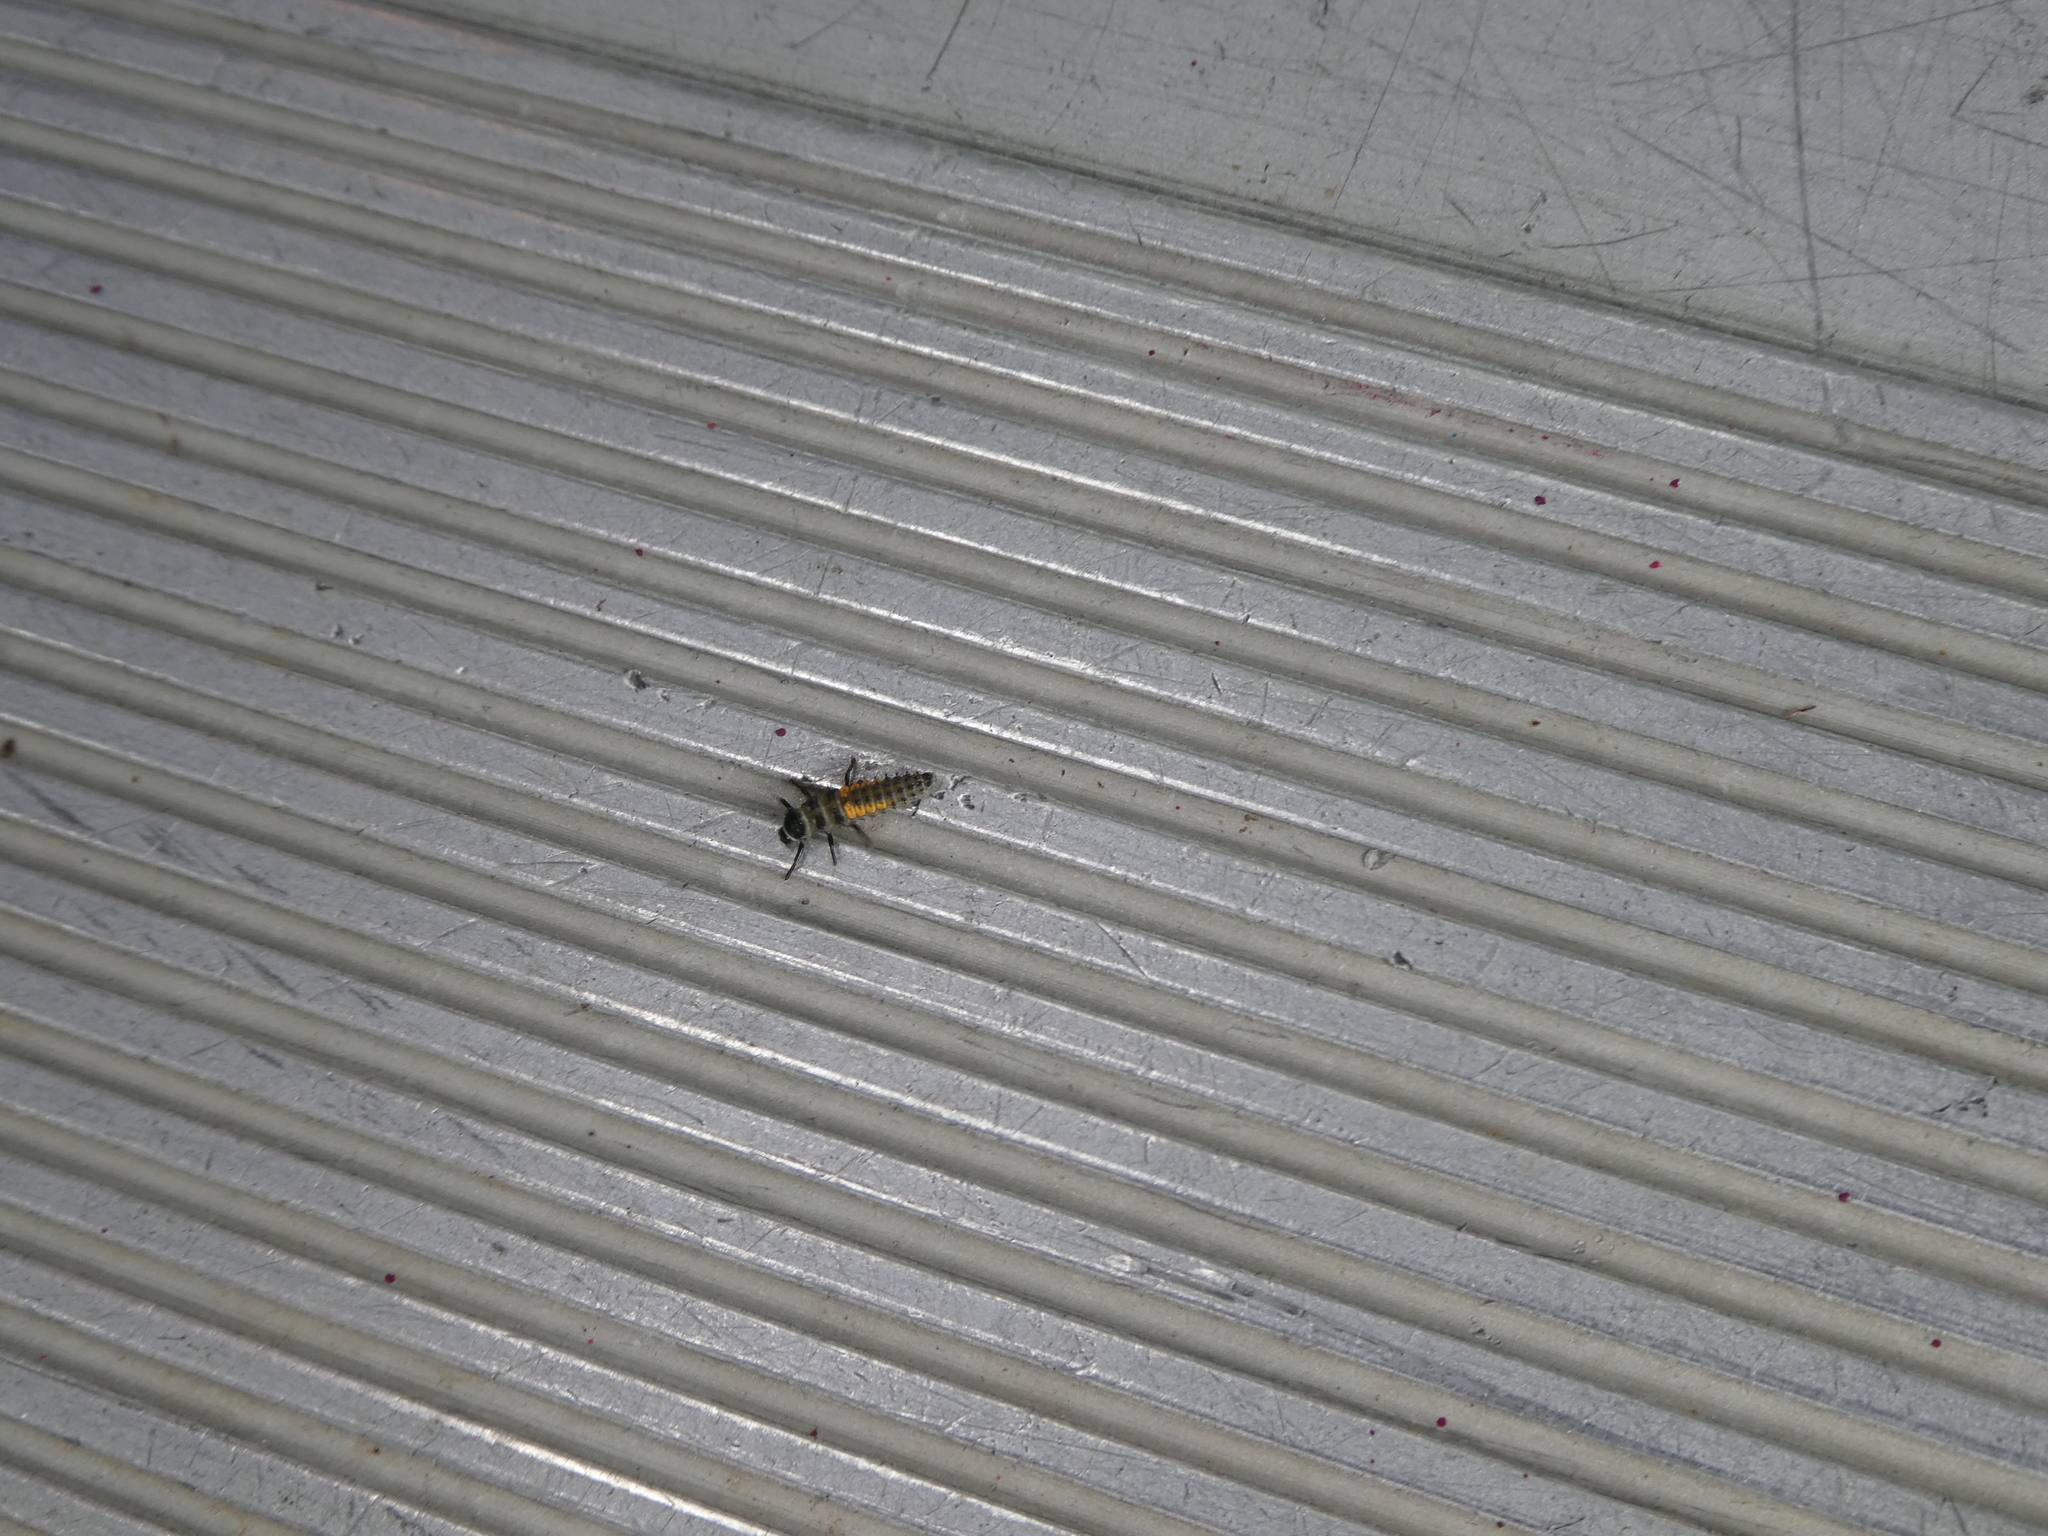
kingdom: Animalia
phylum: Arthropoda
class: Insecta
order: Coleoptera
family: Coccinellidae
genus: Harmonia
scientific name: Harmonia axyridis
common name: Harlequin ladybird
